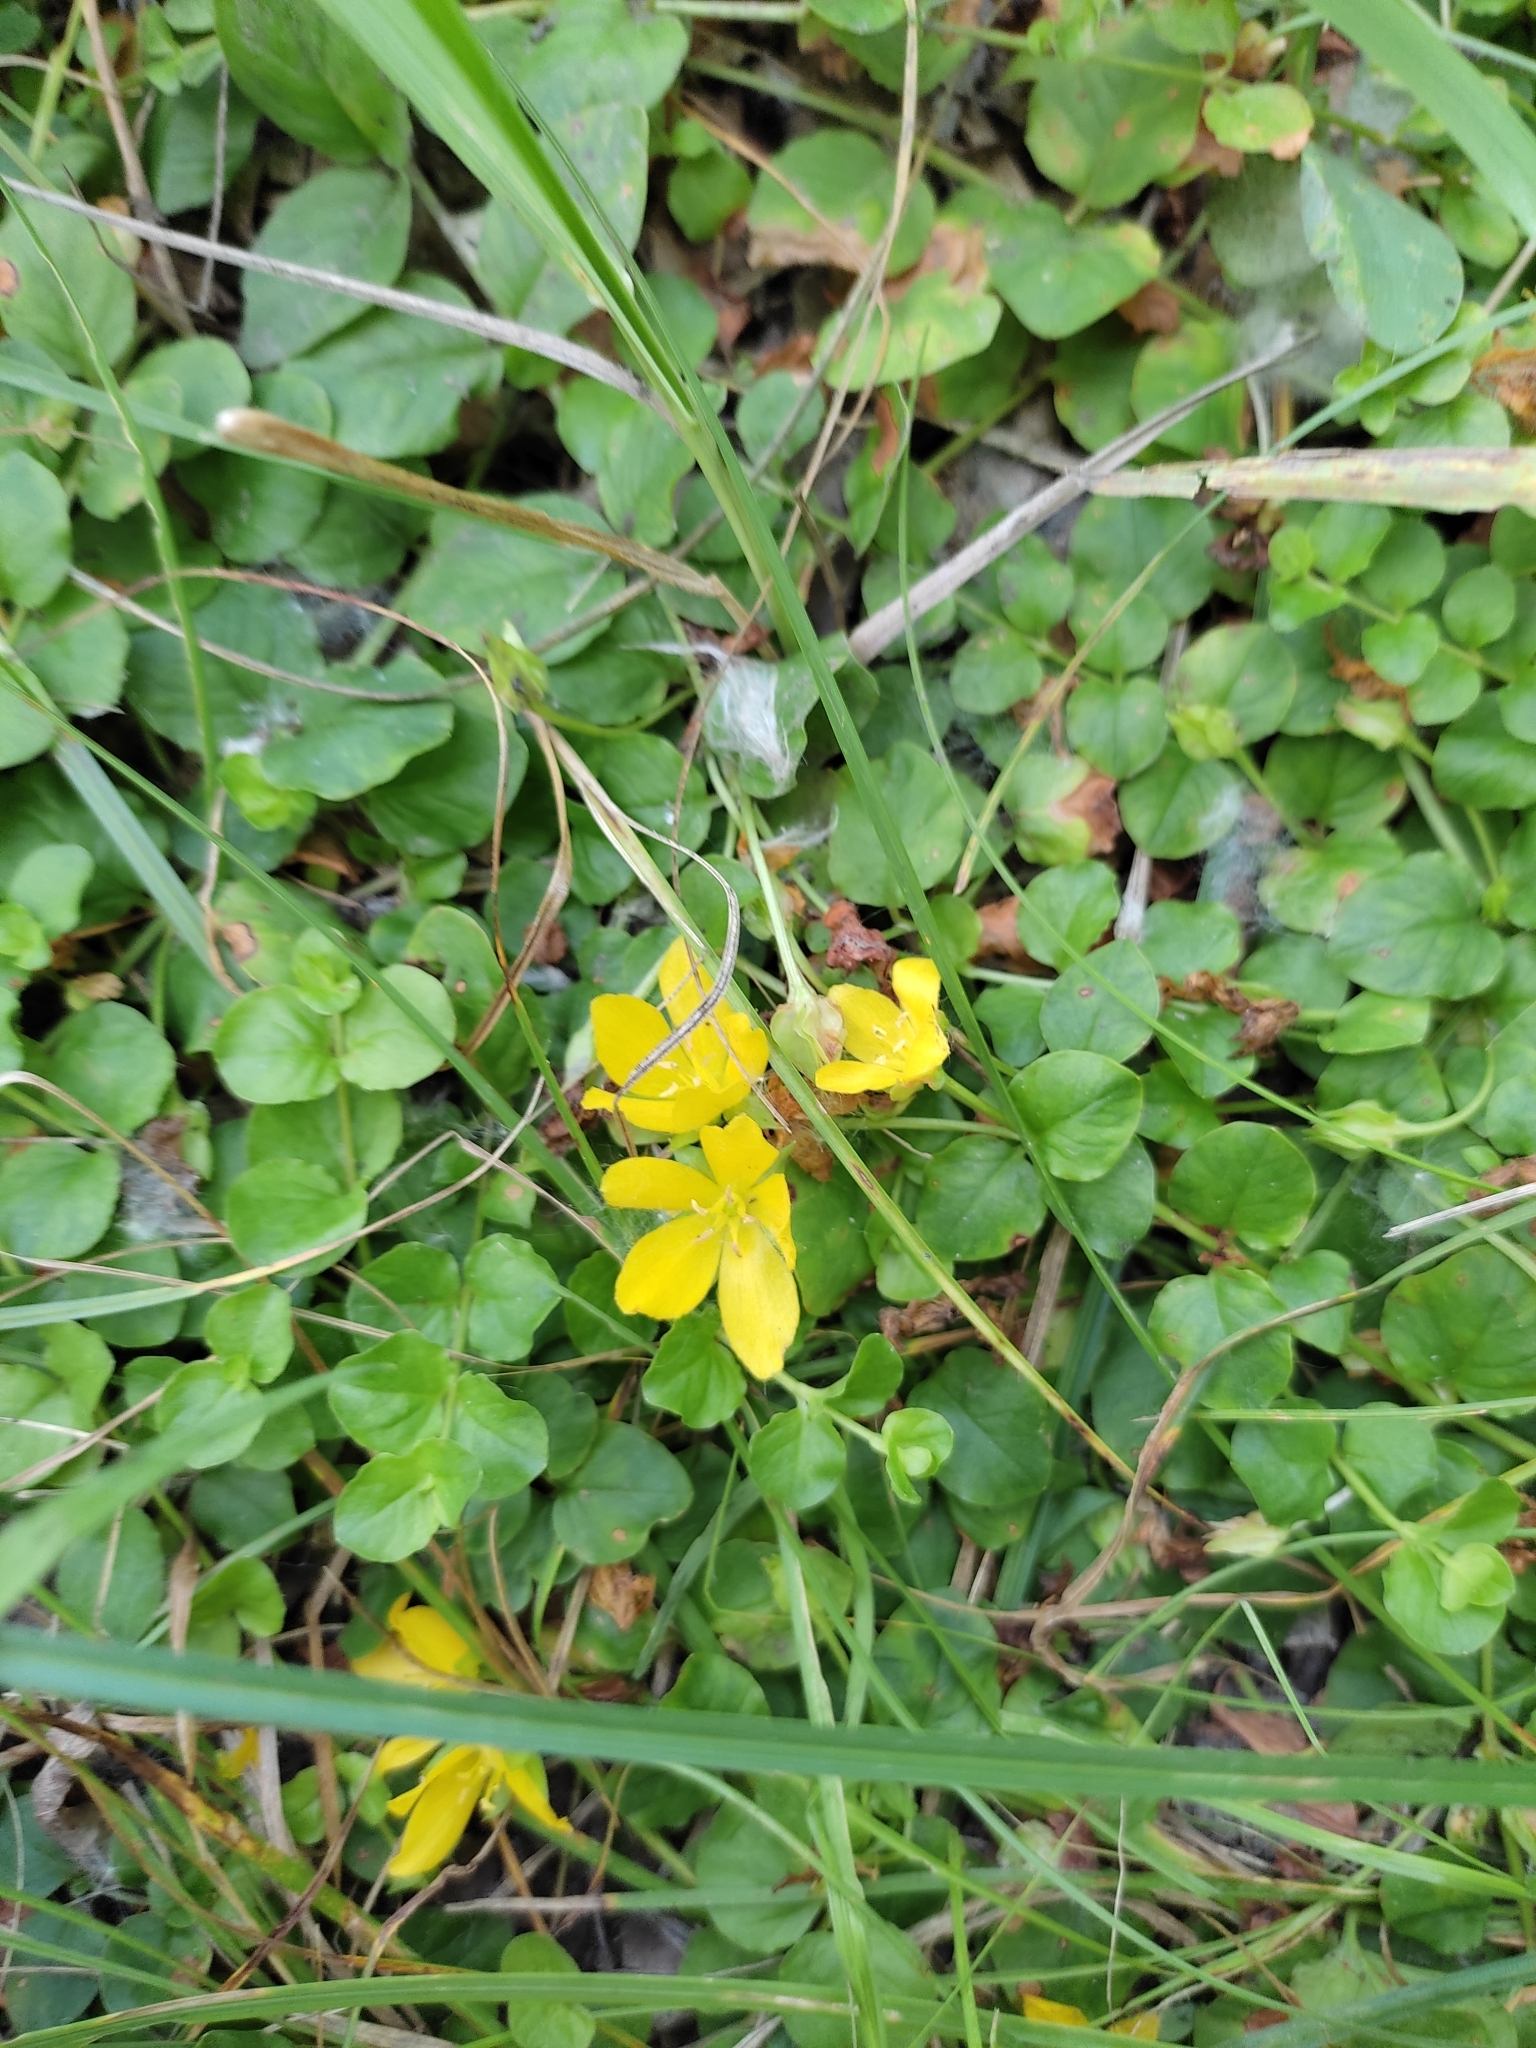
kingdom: Plantae
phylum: Tracheophyta
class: Magnoliopsida
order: Ericales
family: Primulaceae
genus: Lysimachia
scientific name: Lysimachia nummularia
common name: Moneywort
